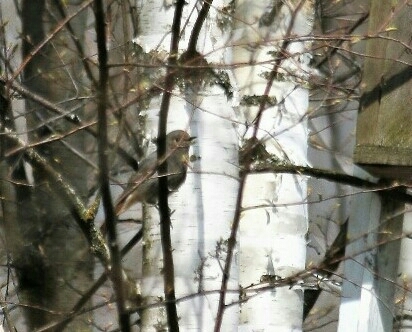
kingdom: Animalia
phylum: Chordata
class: Aves
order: Passeriformes
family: Muscicapidae
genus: Phoenicurus
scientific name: Phoenicurus ochruros
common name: Black redstart
